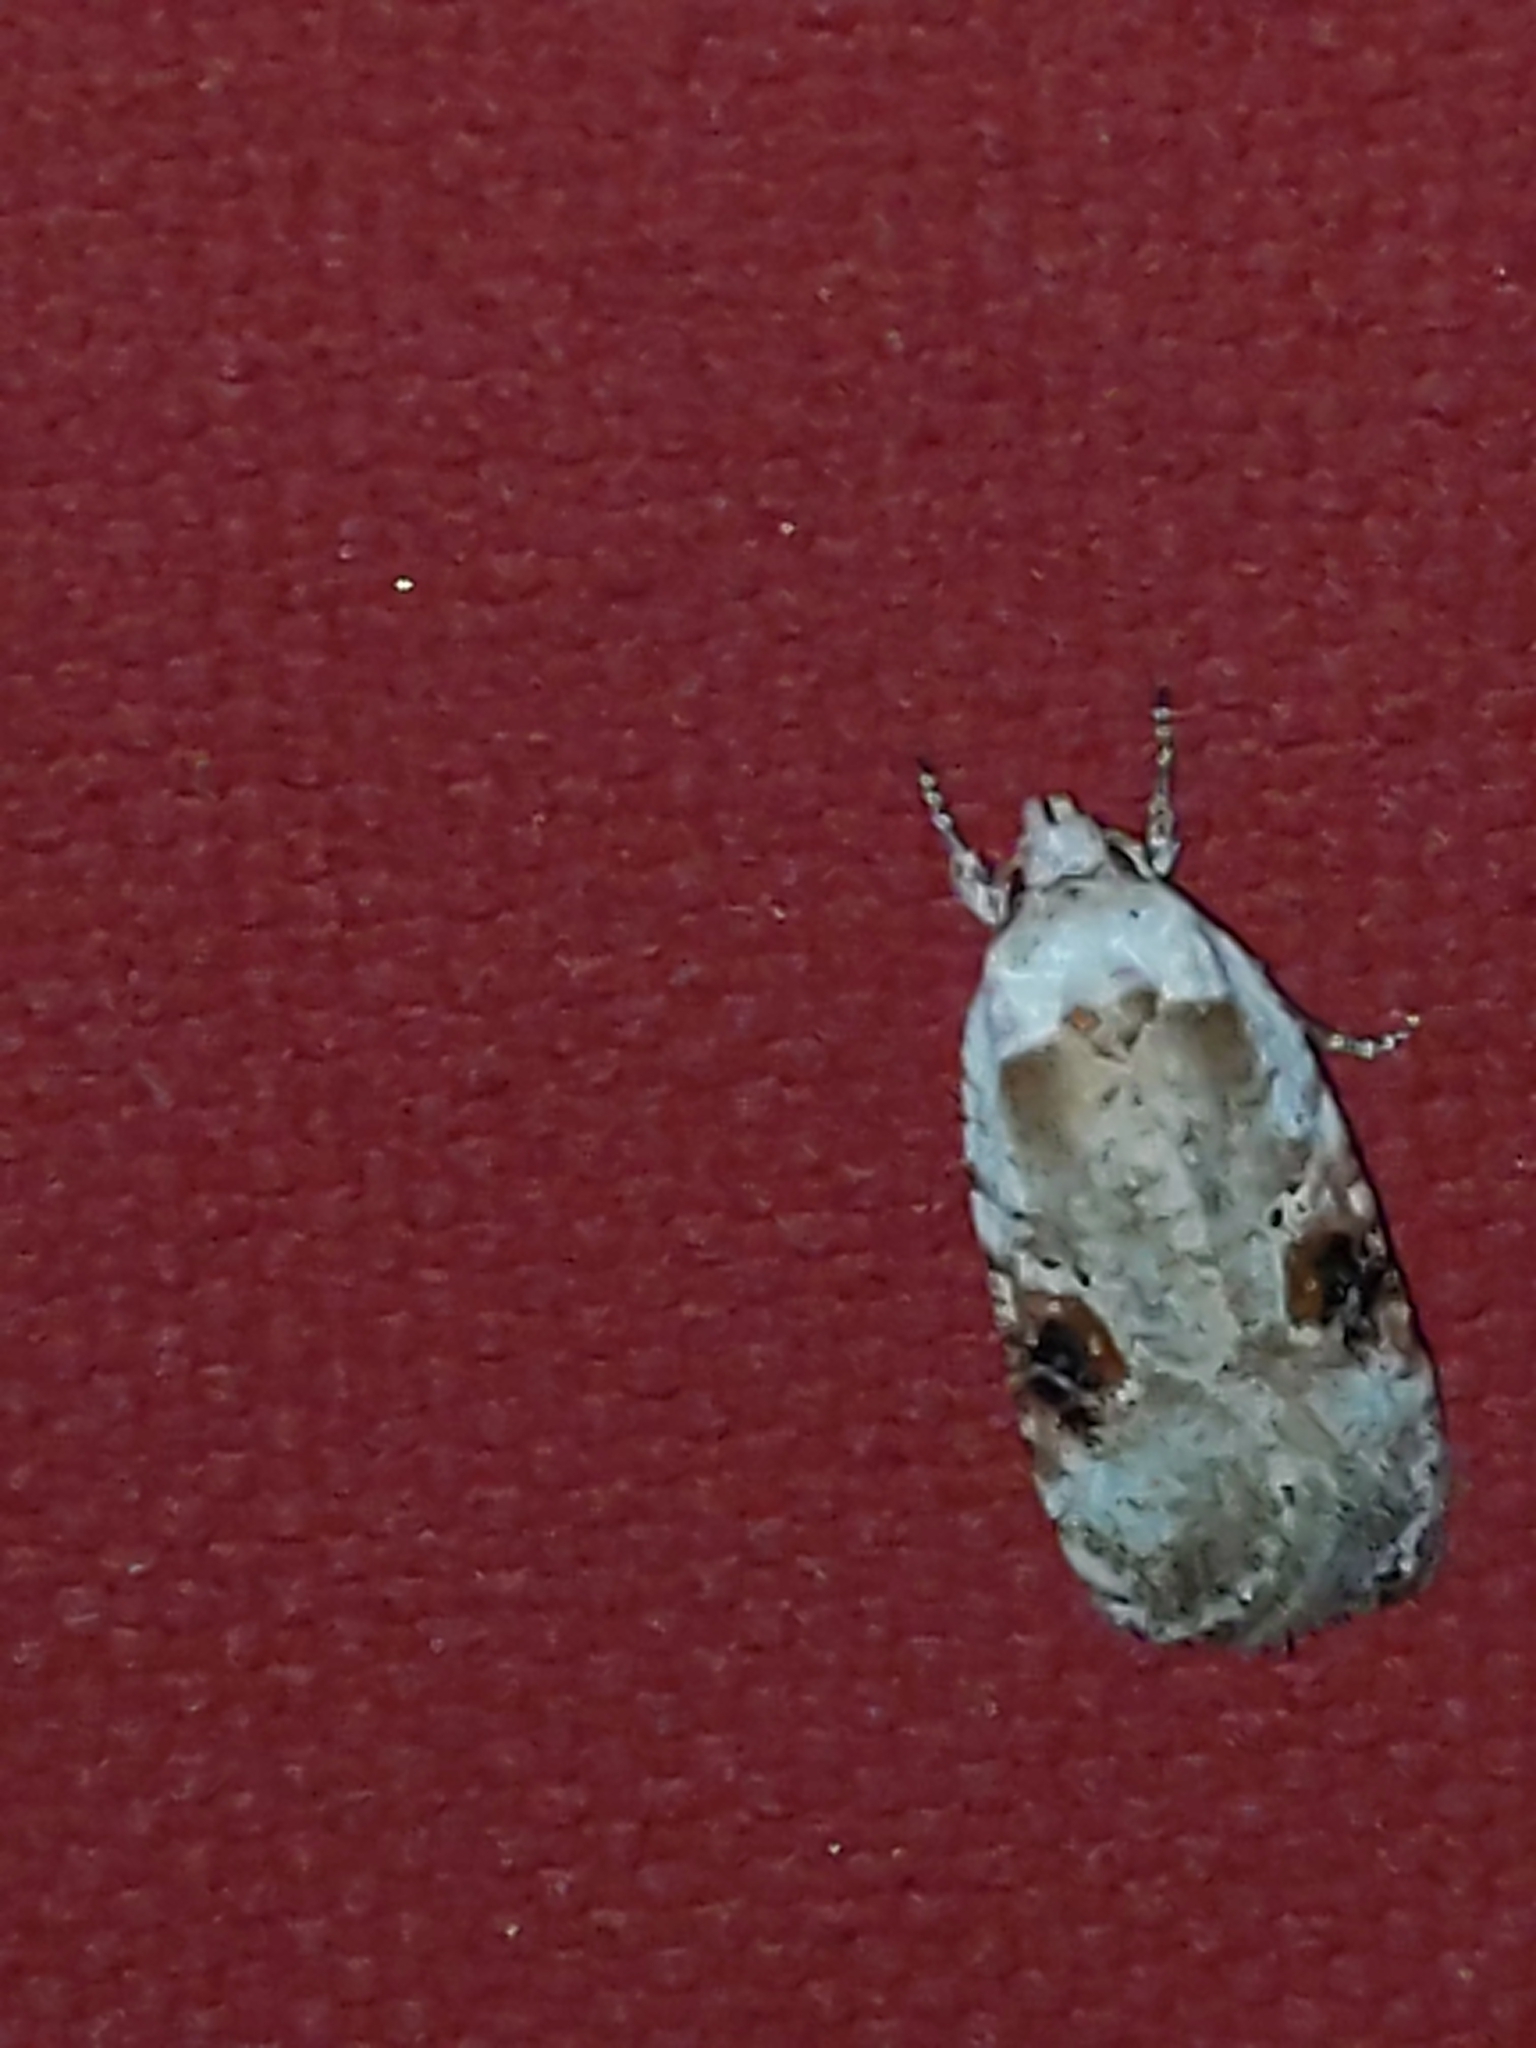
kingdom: Animalia
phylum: Arthropoda
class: Insecta
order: Lepidoptera
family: Depressariidae
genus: Agonopterix
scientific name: Agonopterix alstroemeriana
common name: Moth
